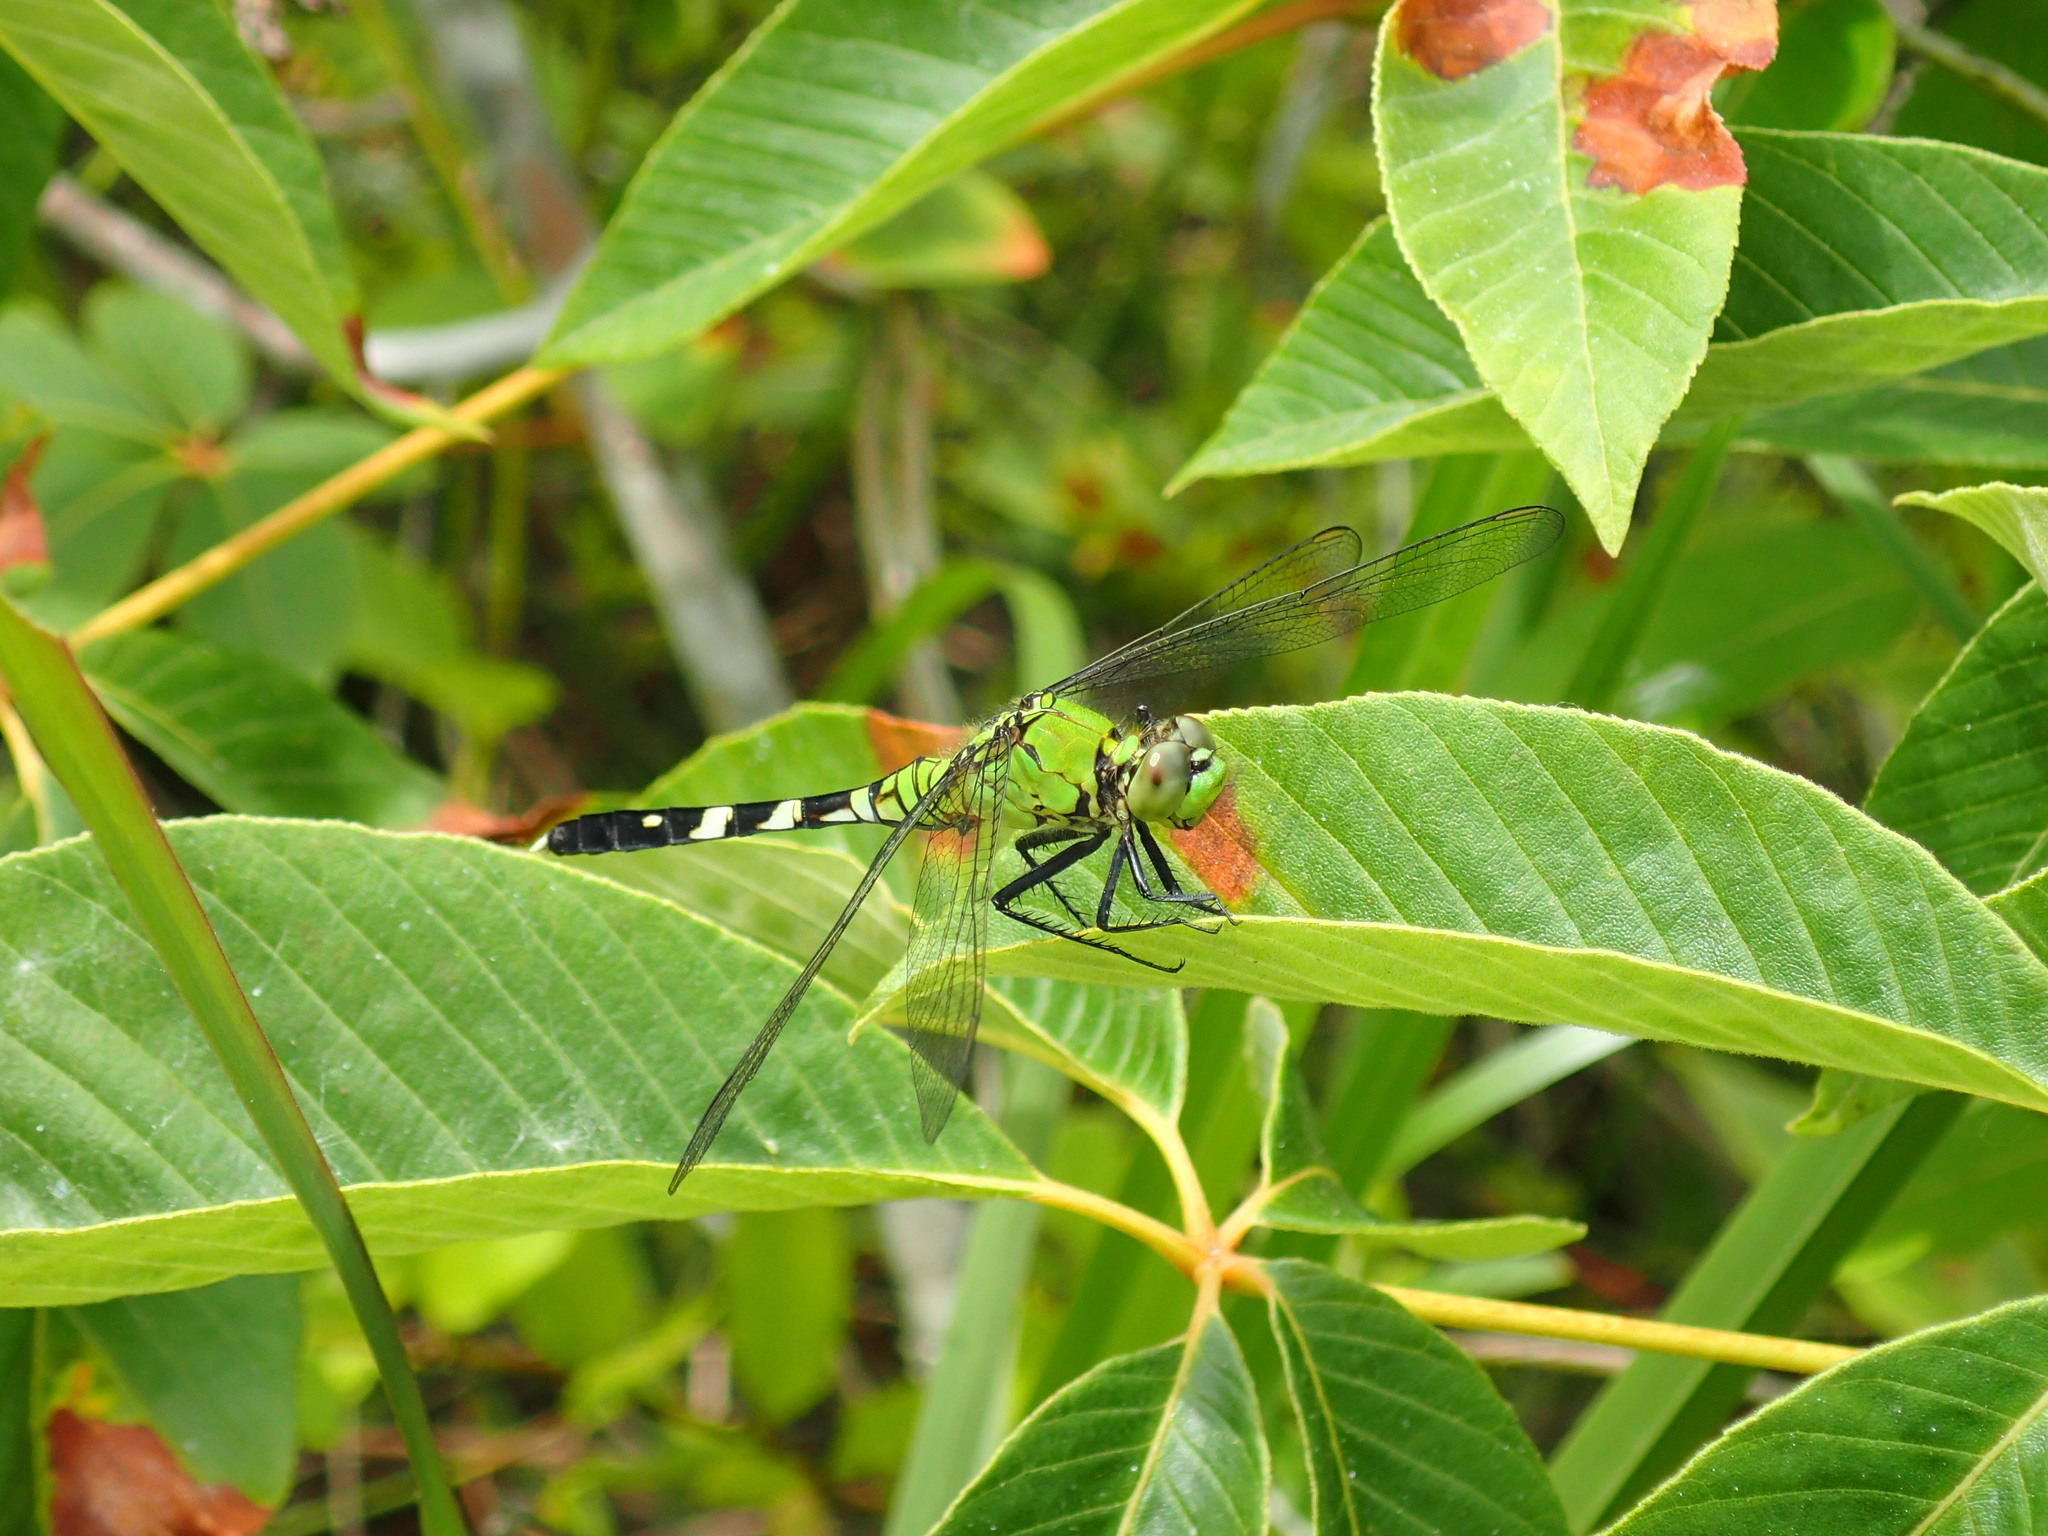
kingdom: Animalia
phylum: Arthropoda
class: Insecta
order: Odonata
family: Libellulidae
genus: Erythemis
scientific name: Erythemis simplicicollis
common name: Eastern pondhawk
